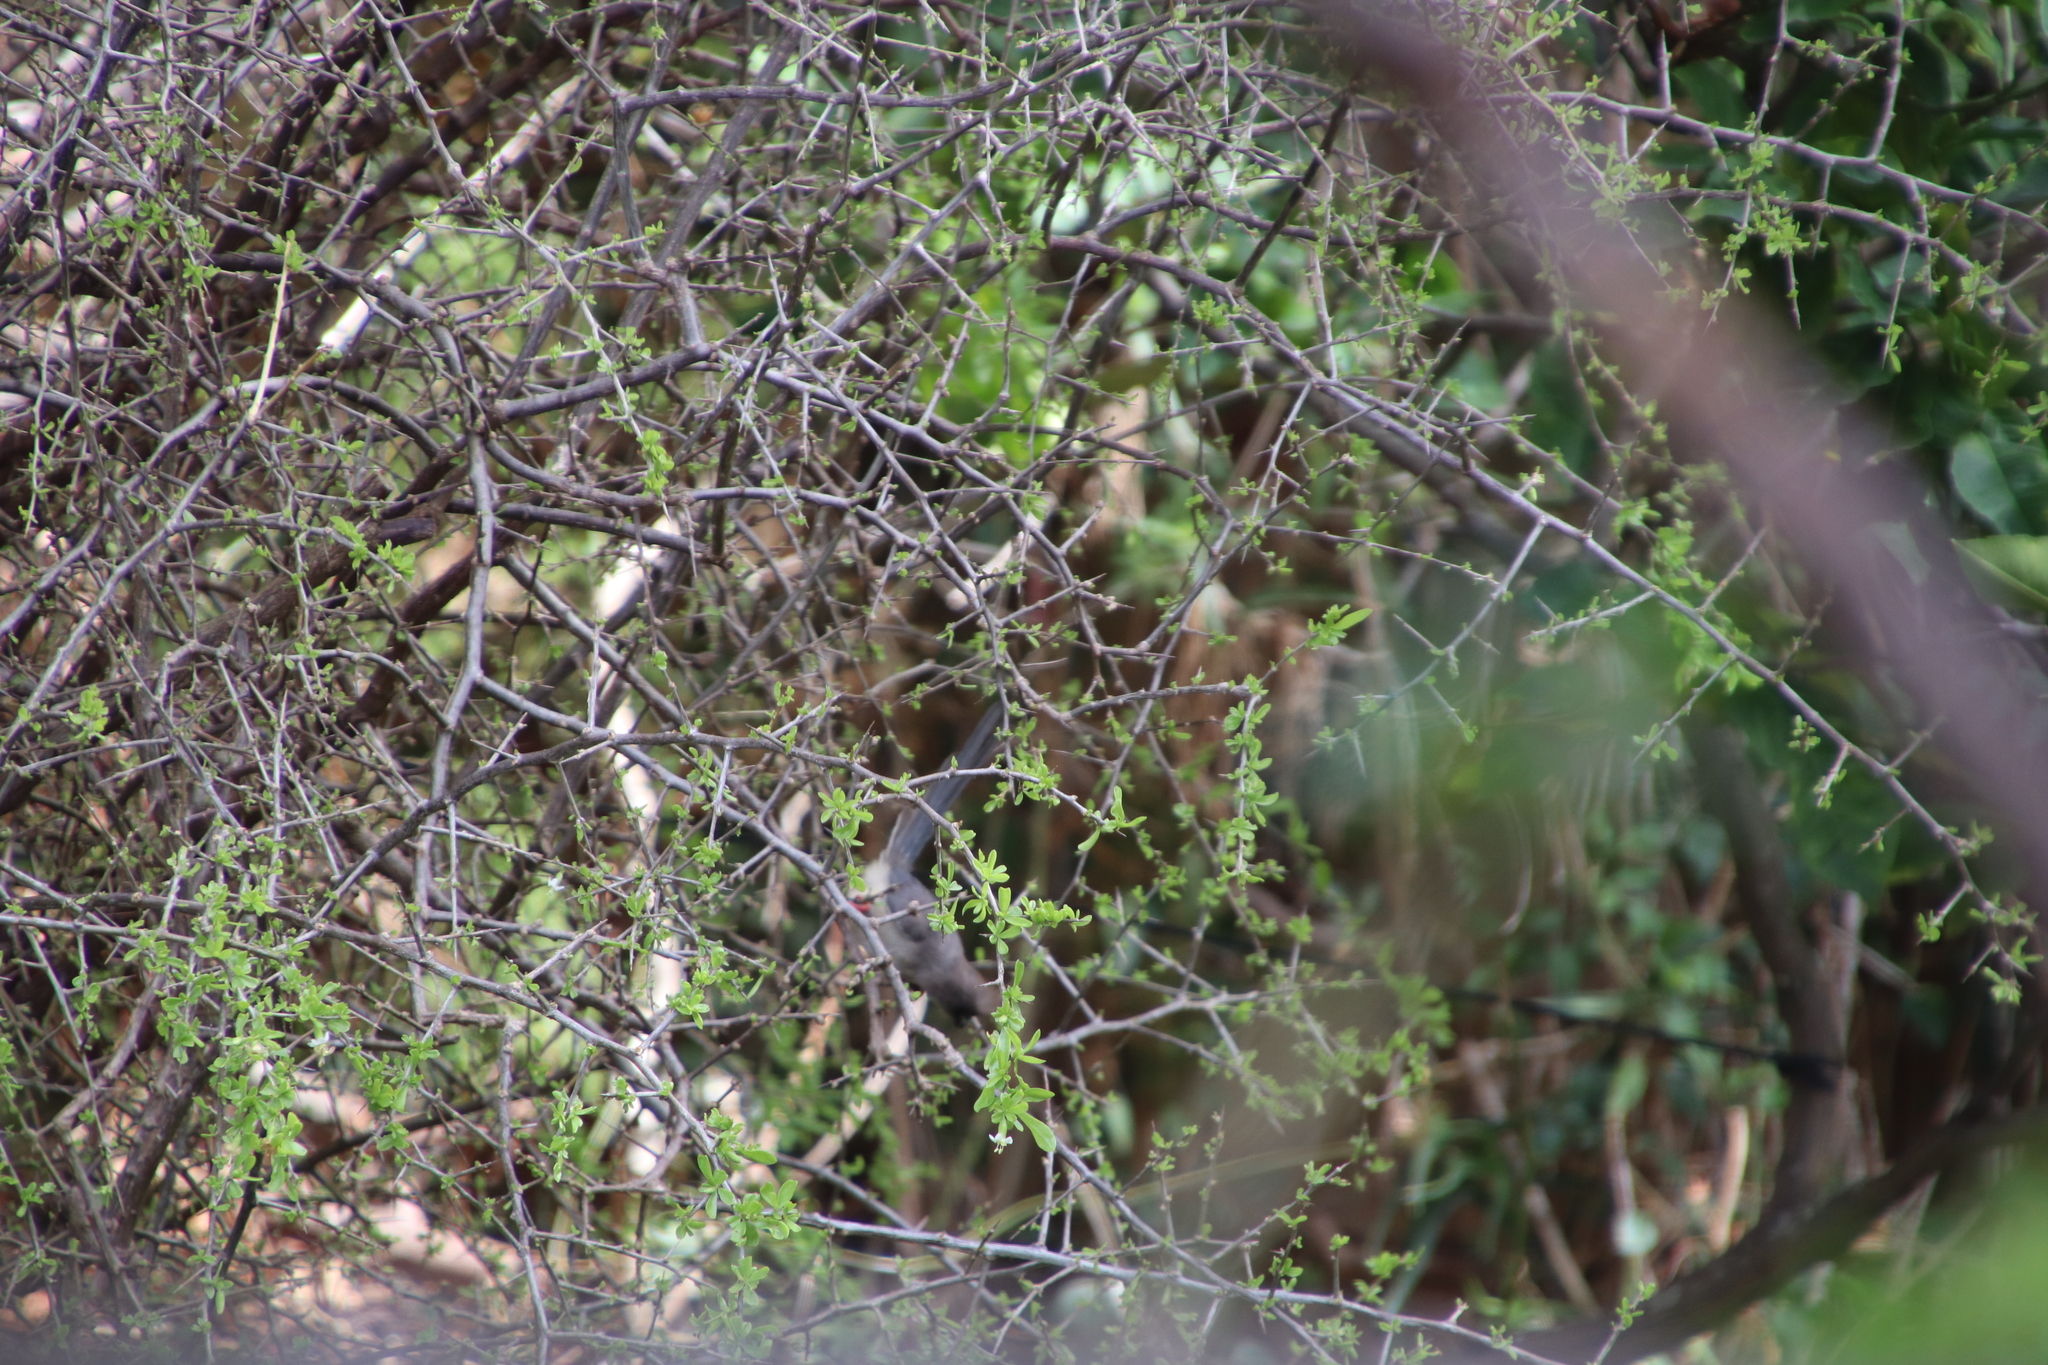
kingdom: Animalia
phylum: Chordata
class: Aves
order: Coliiformes
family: Coliidae
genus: Colius
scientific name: Colius colius
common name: White-backed mousebird
